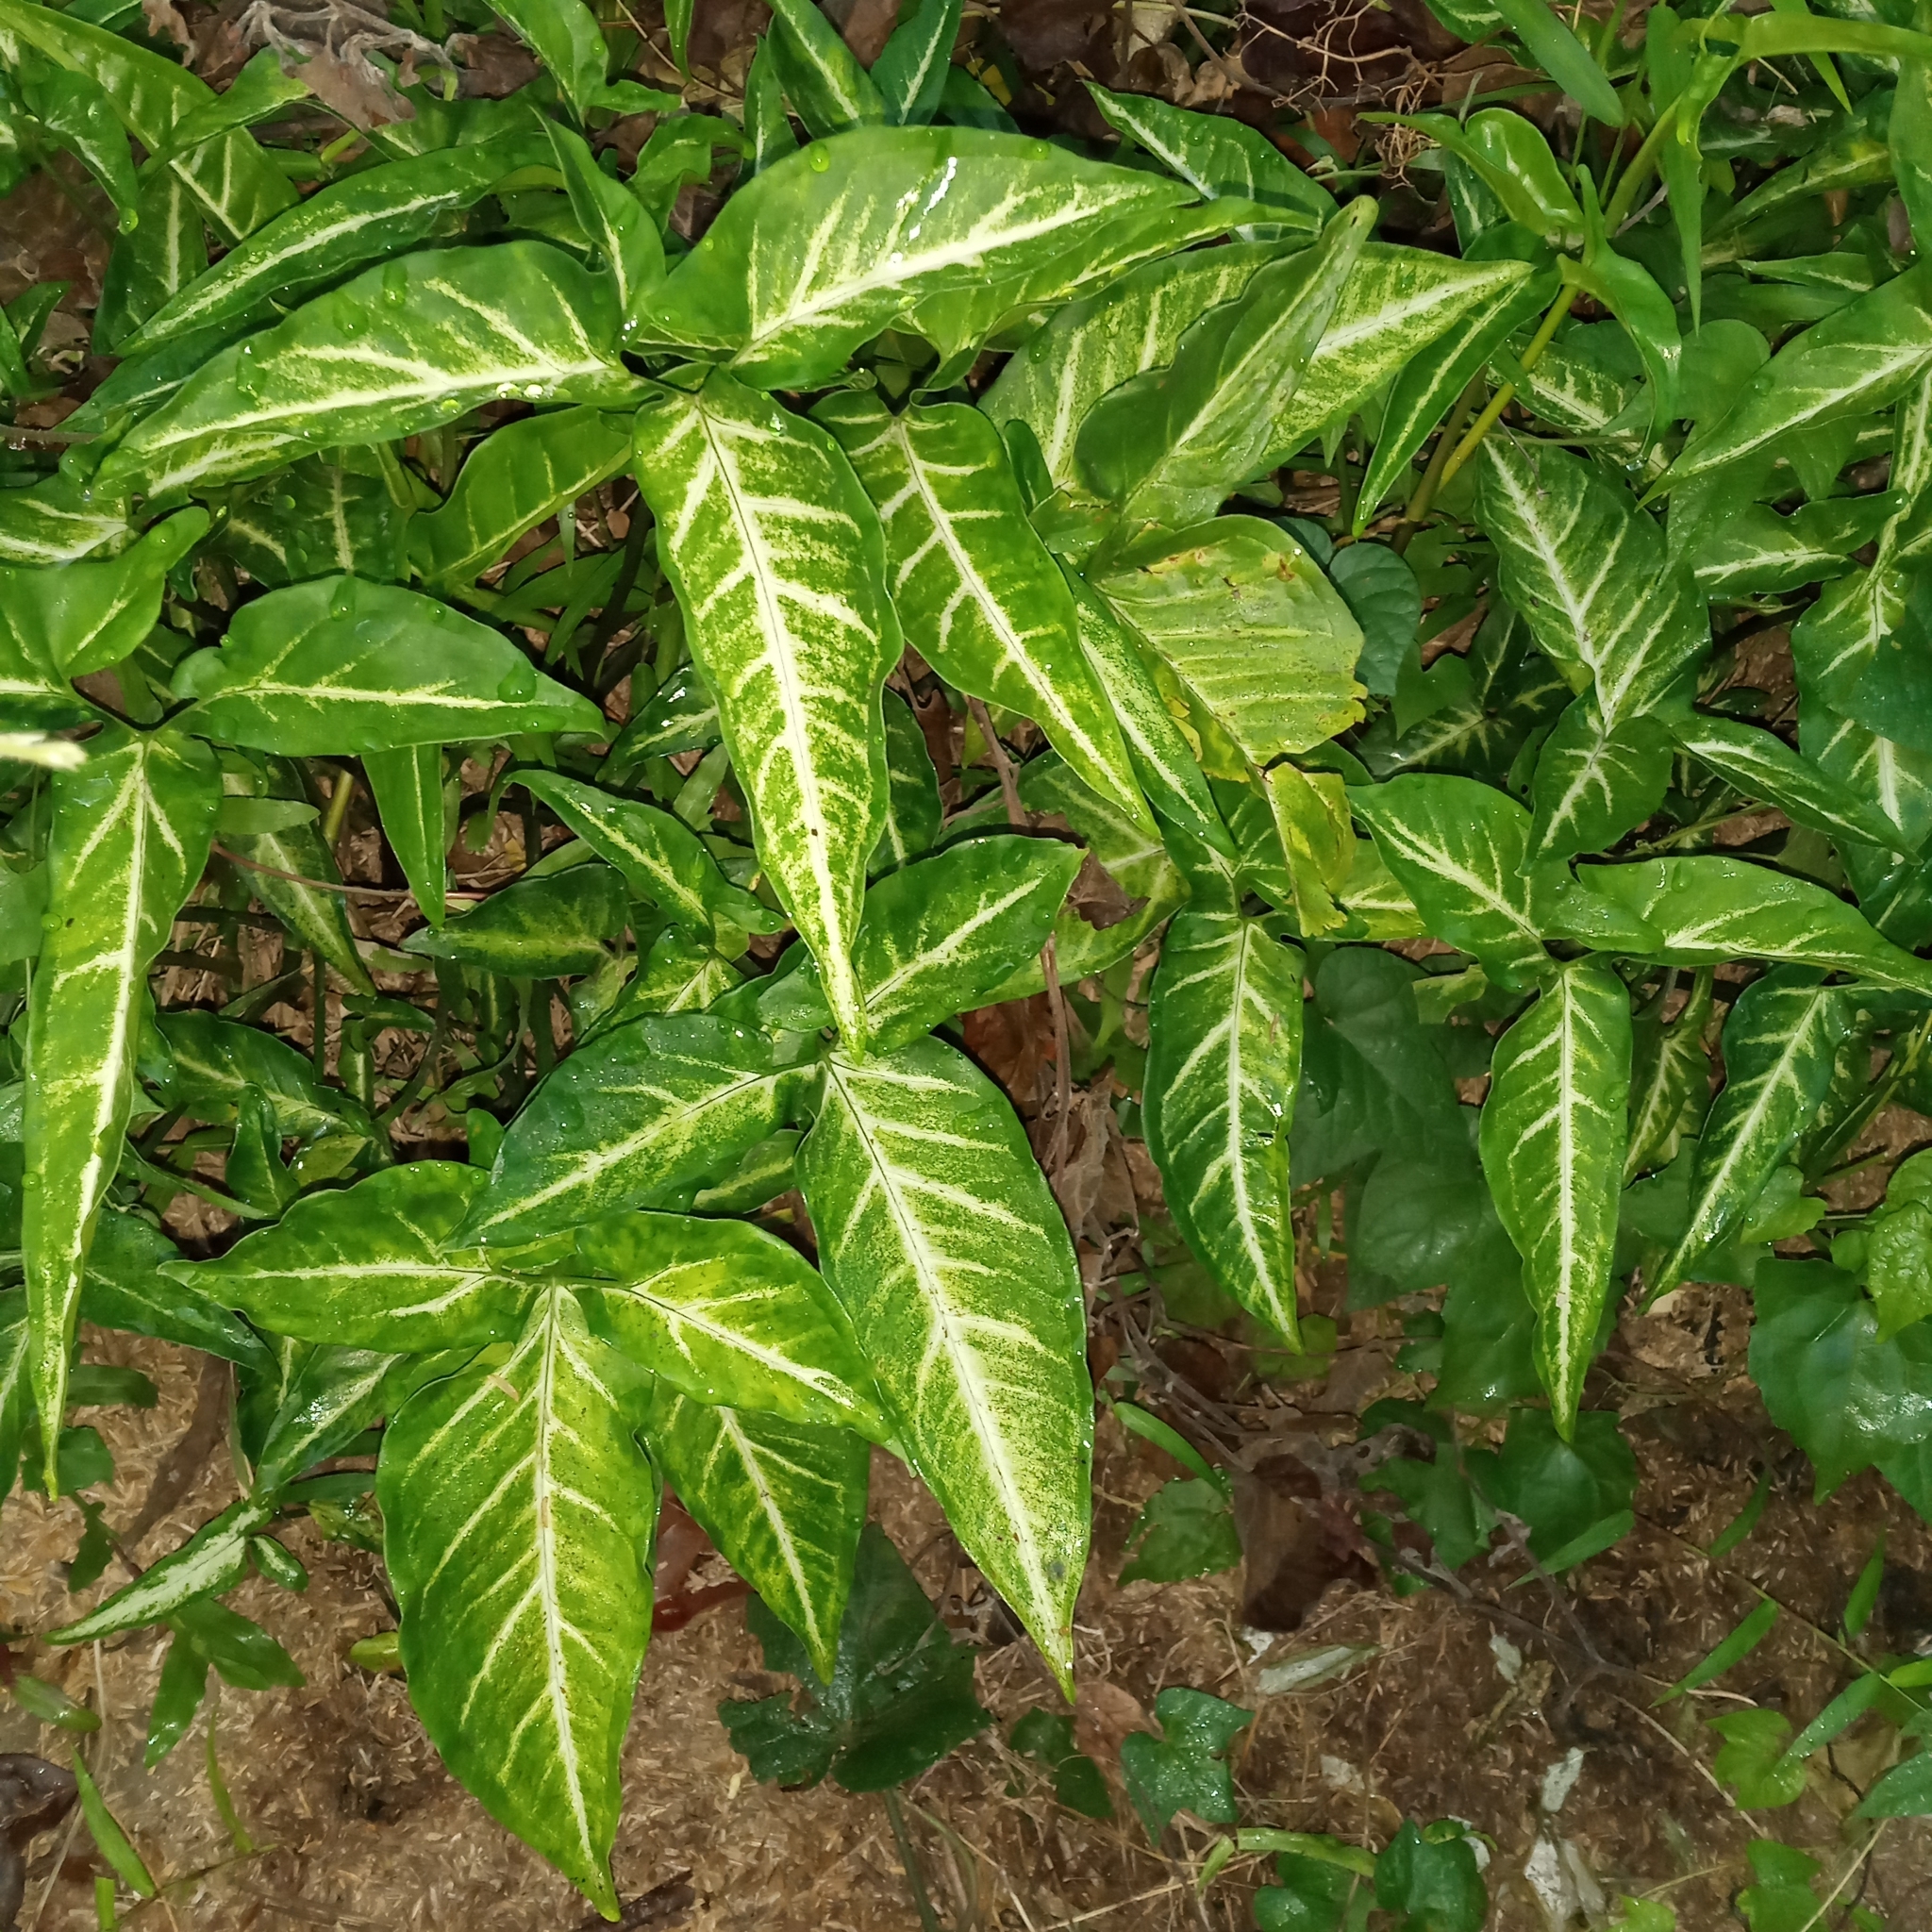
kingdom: Plantae
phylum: Tracheophyta
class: Liliopsida
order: Alismatales
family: Araceae
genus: Syngonium
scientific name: Syngonium podophyllum
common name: American evergreen
